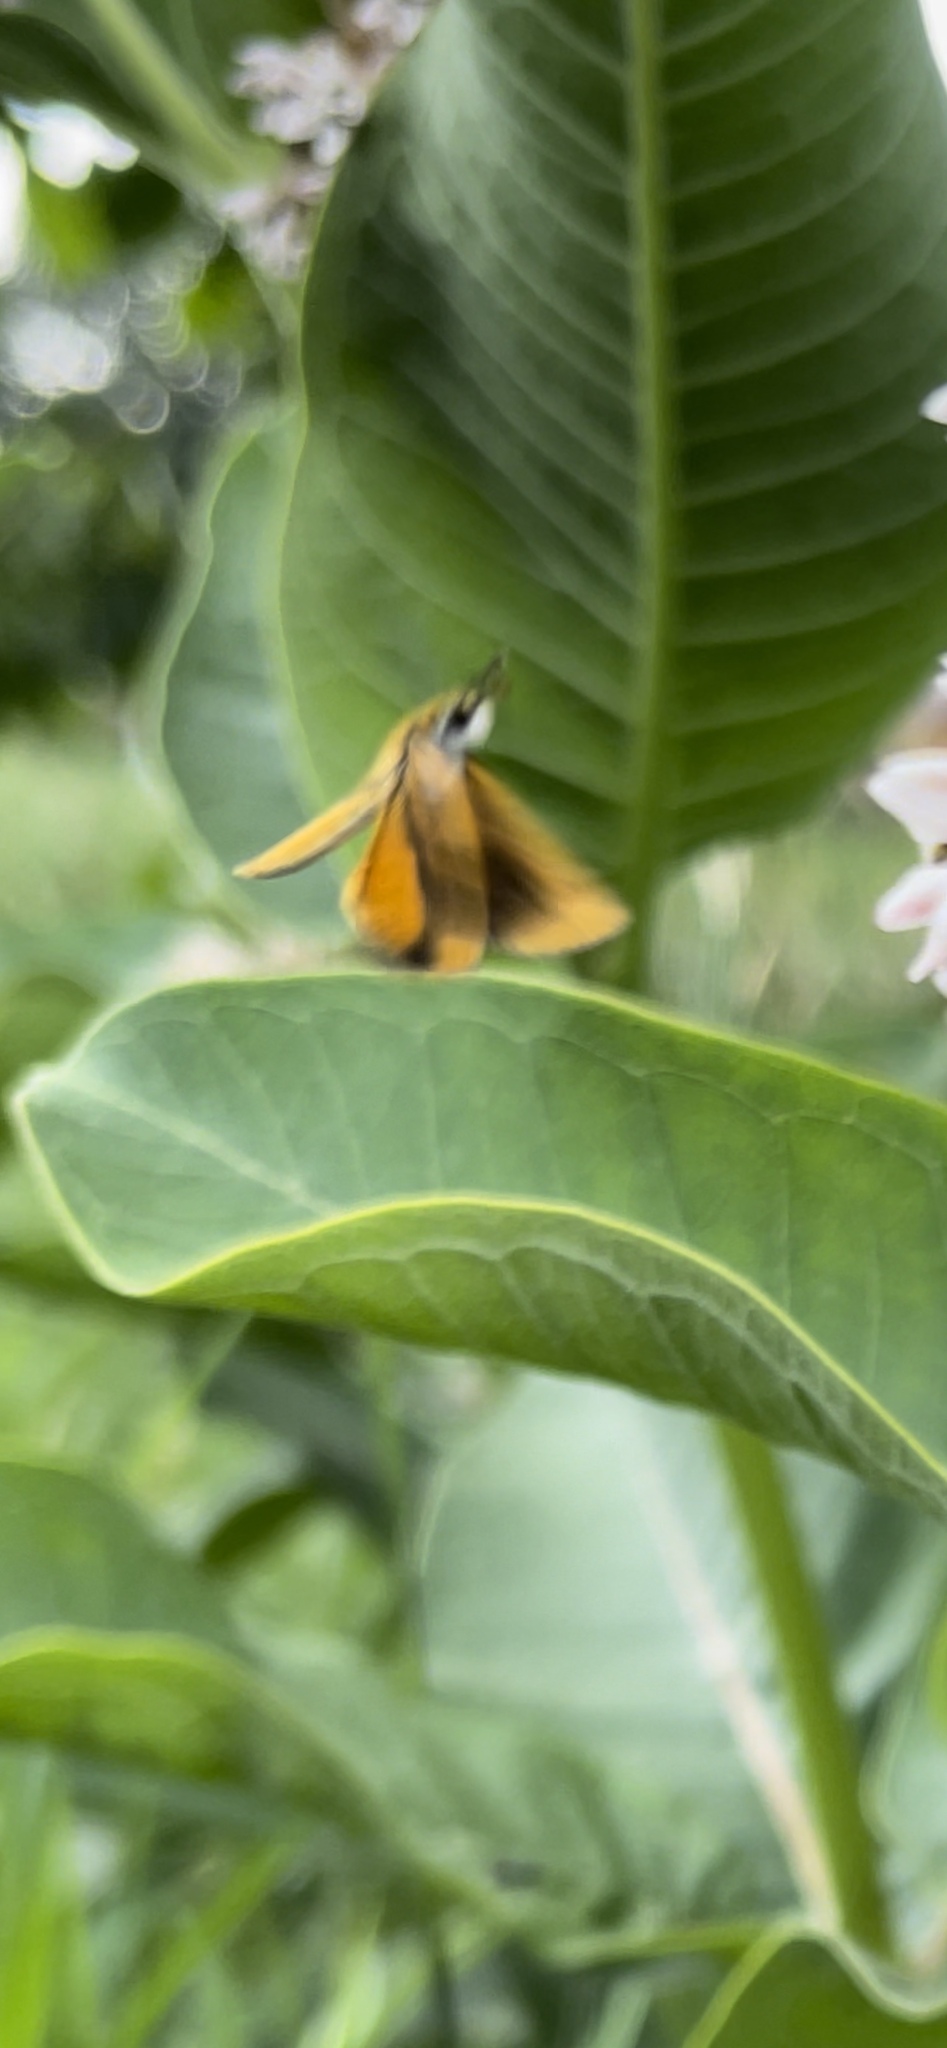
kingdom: Animalia
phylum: Arthropoda
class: Insecta
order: Lepidoptera
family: Hesperiidae
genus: Ancyloxypha
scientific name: Ancyloxypha numitor
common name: Least skipper
